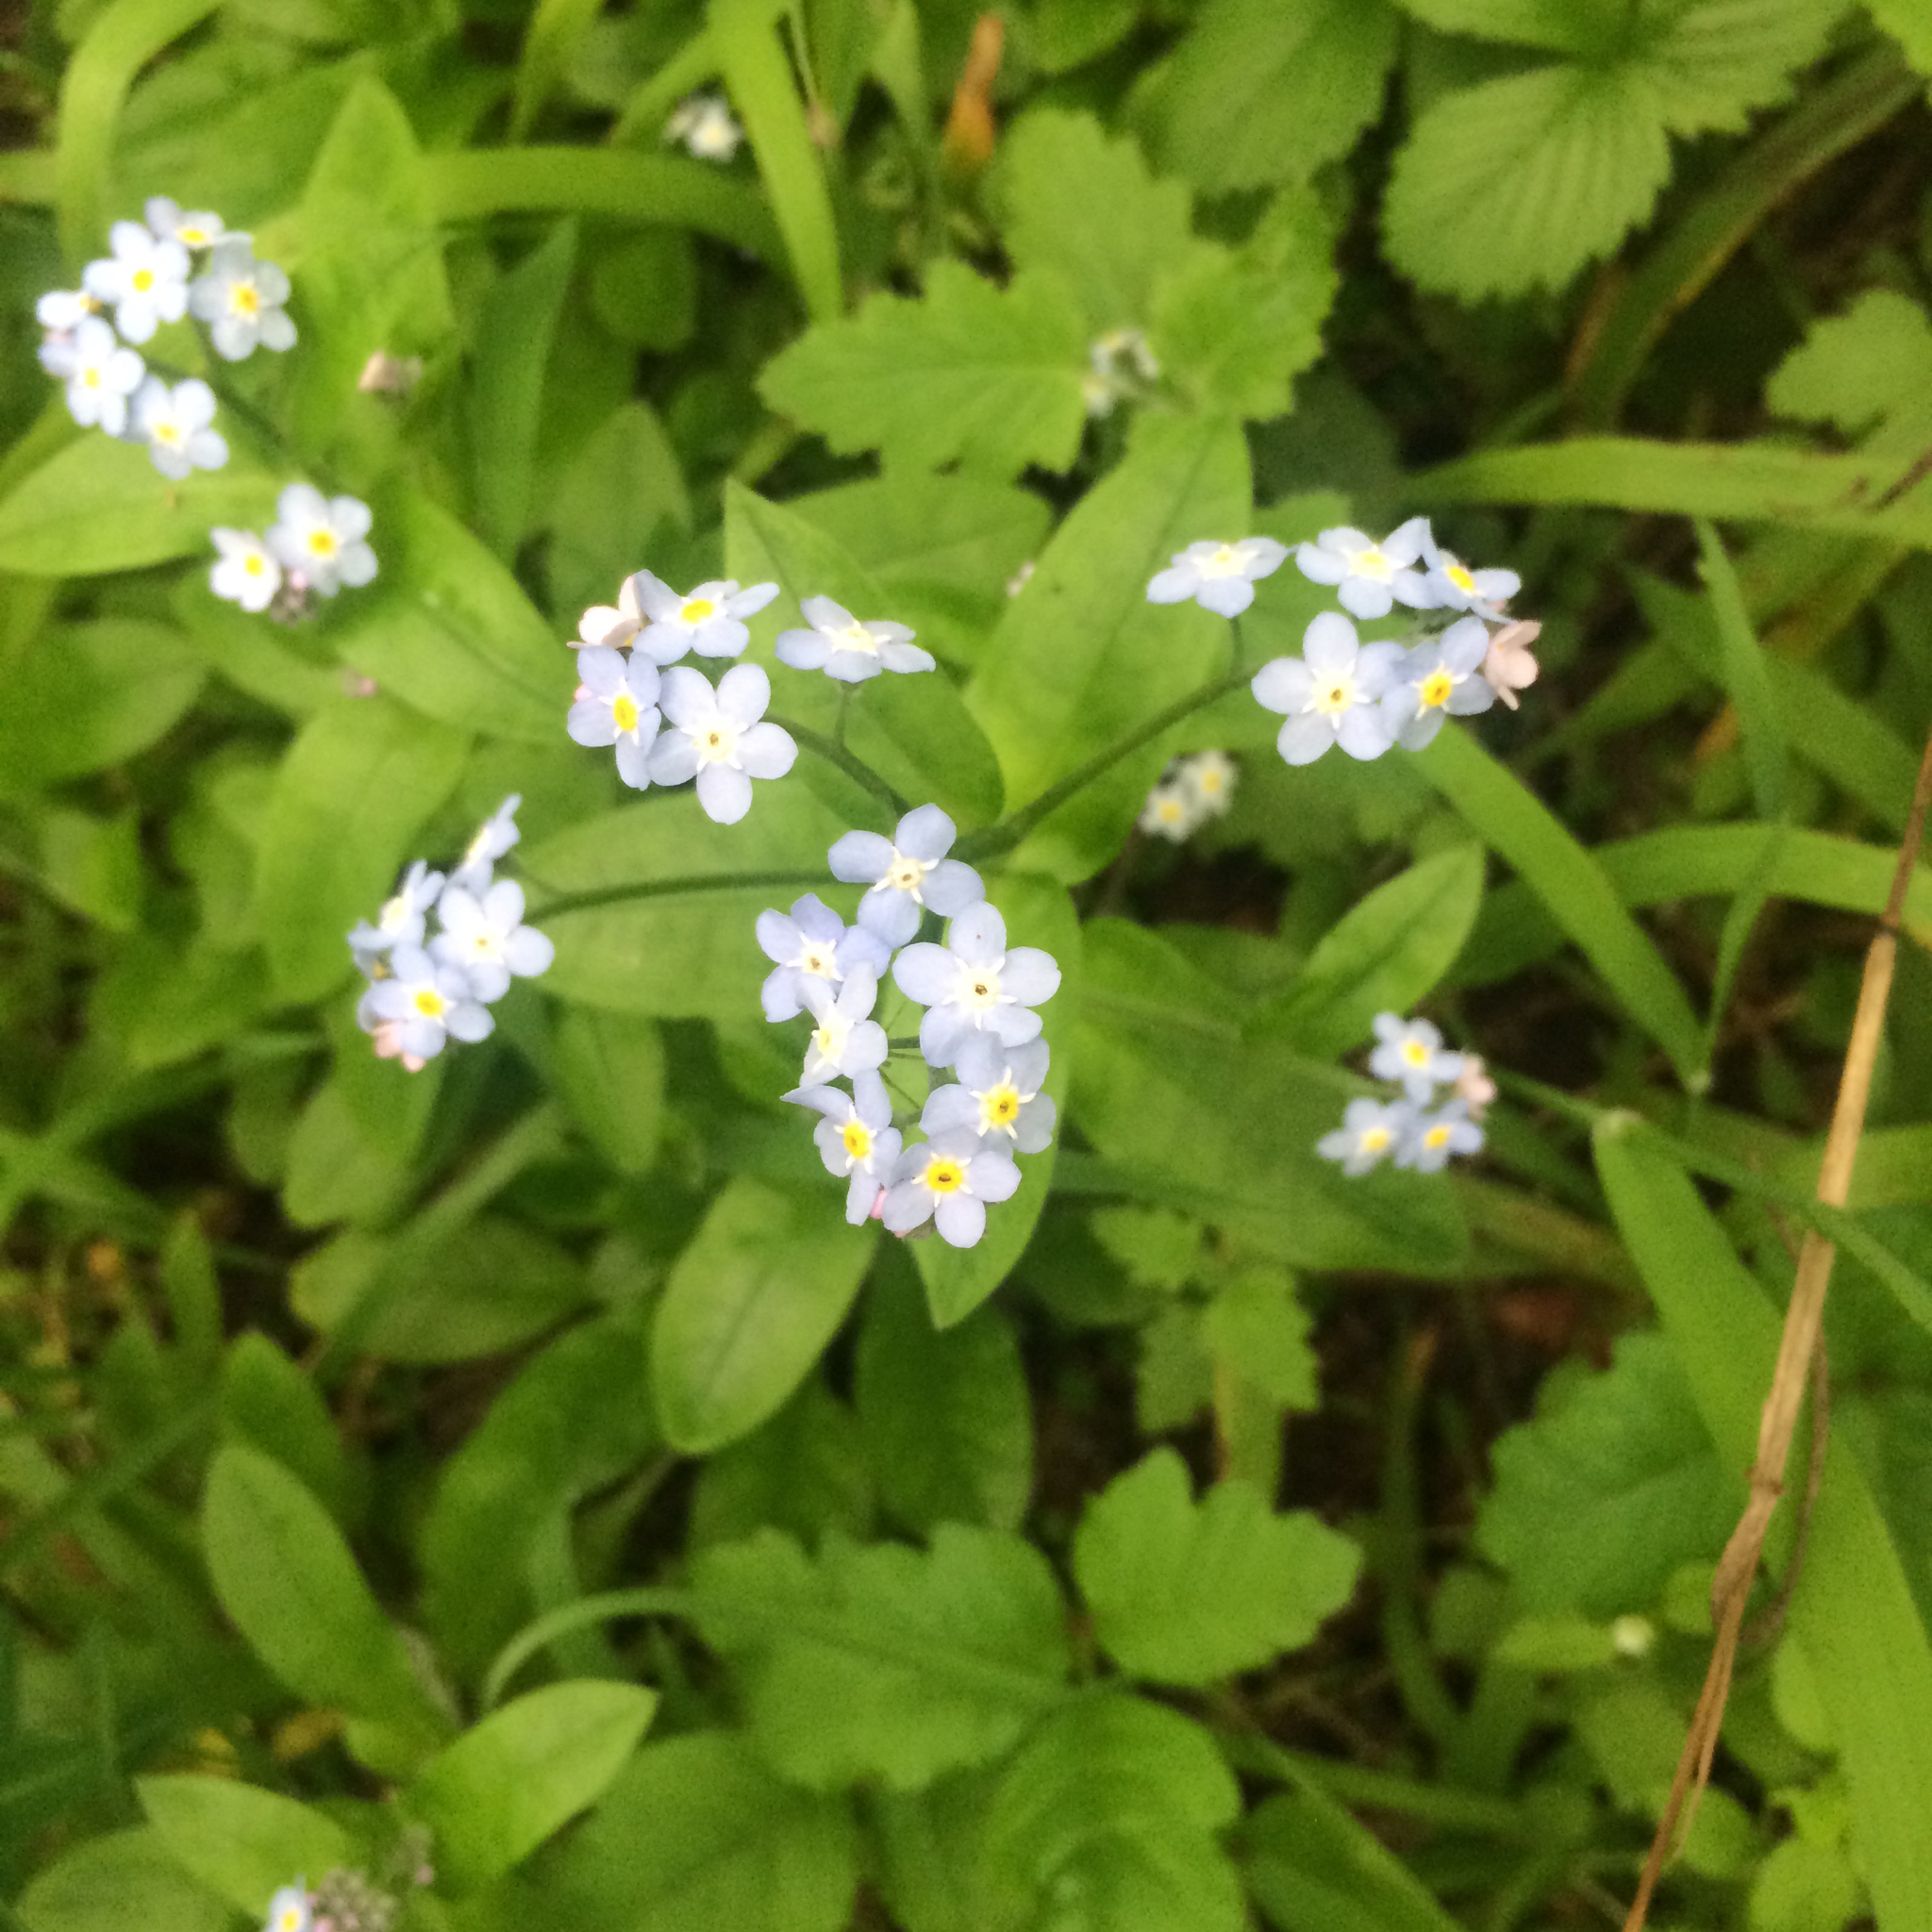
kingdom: Plantae
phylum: Tracheophyta
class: Magnoliopsida
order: Boraginales
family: Boraginaceae
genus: Myosotis
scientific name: Myosotis latifolia
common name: Broadleaf forget-me-not
